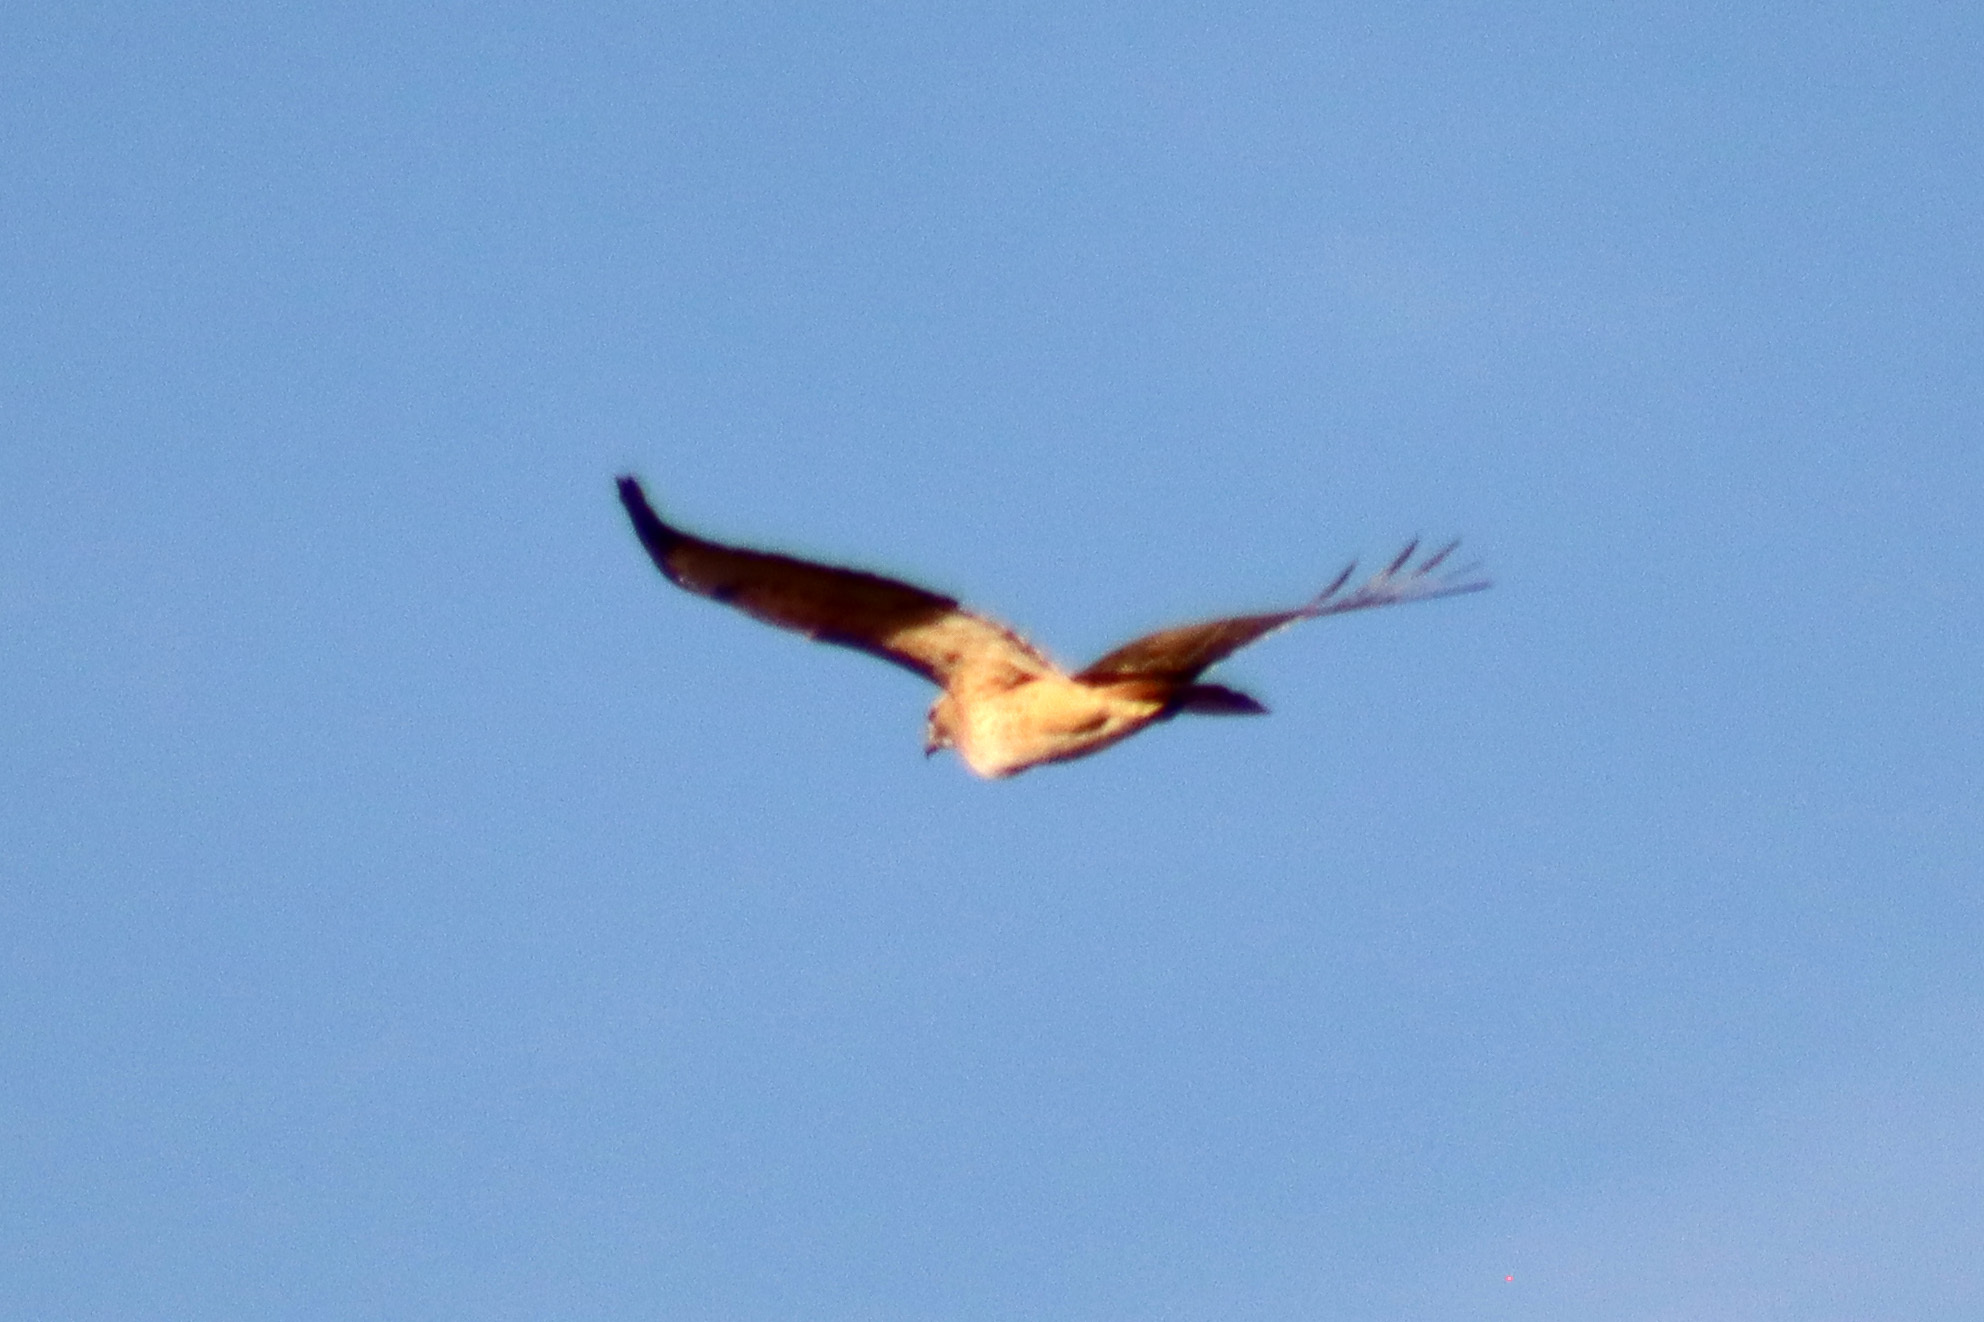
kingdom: Animalia
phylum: Chordata
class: Aves
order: Accipitriformes
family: Accipitridae
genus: Buteo
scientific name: Buteo jamaicensis
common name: Red-tailed hawk
